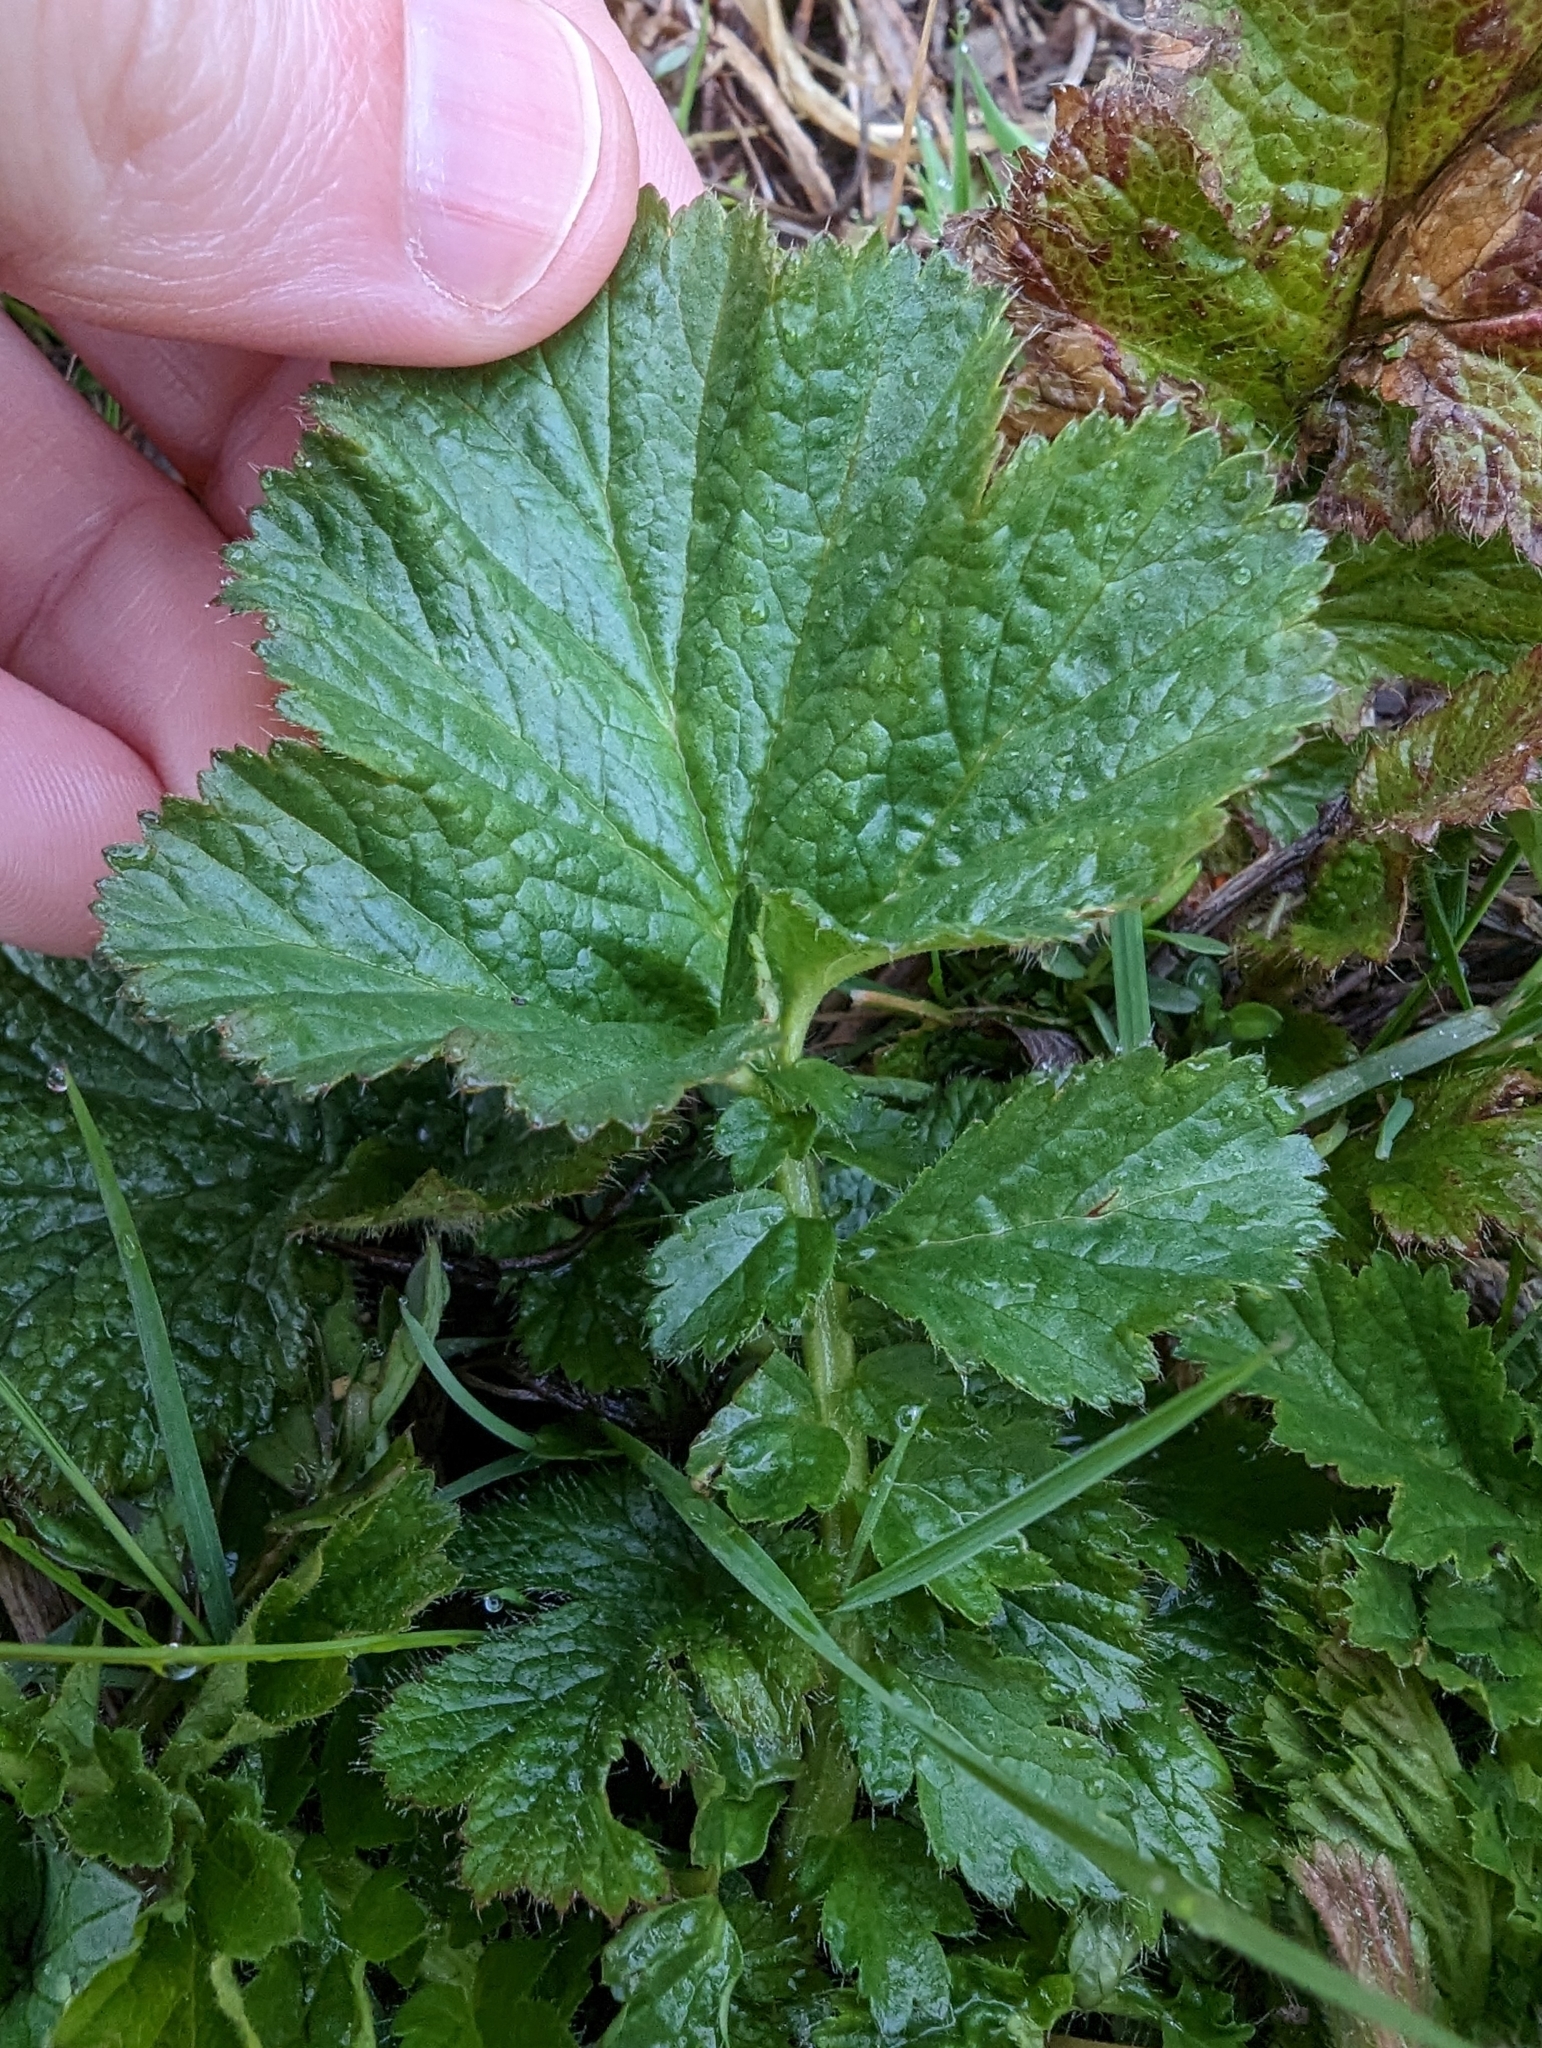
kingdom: Plantae
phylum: Tracheophyta
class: Magnoliopsida
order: Rosales
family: Rosaceae
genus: Geum
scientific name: Geum macrophyllum
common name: Large-leaved avens
